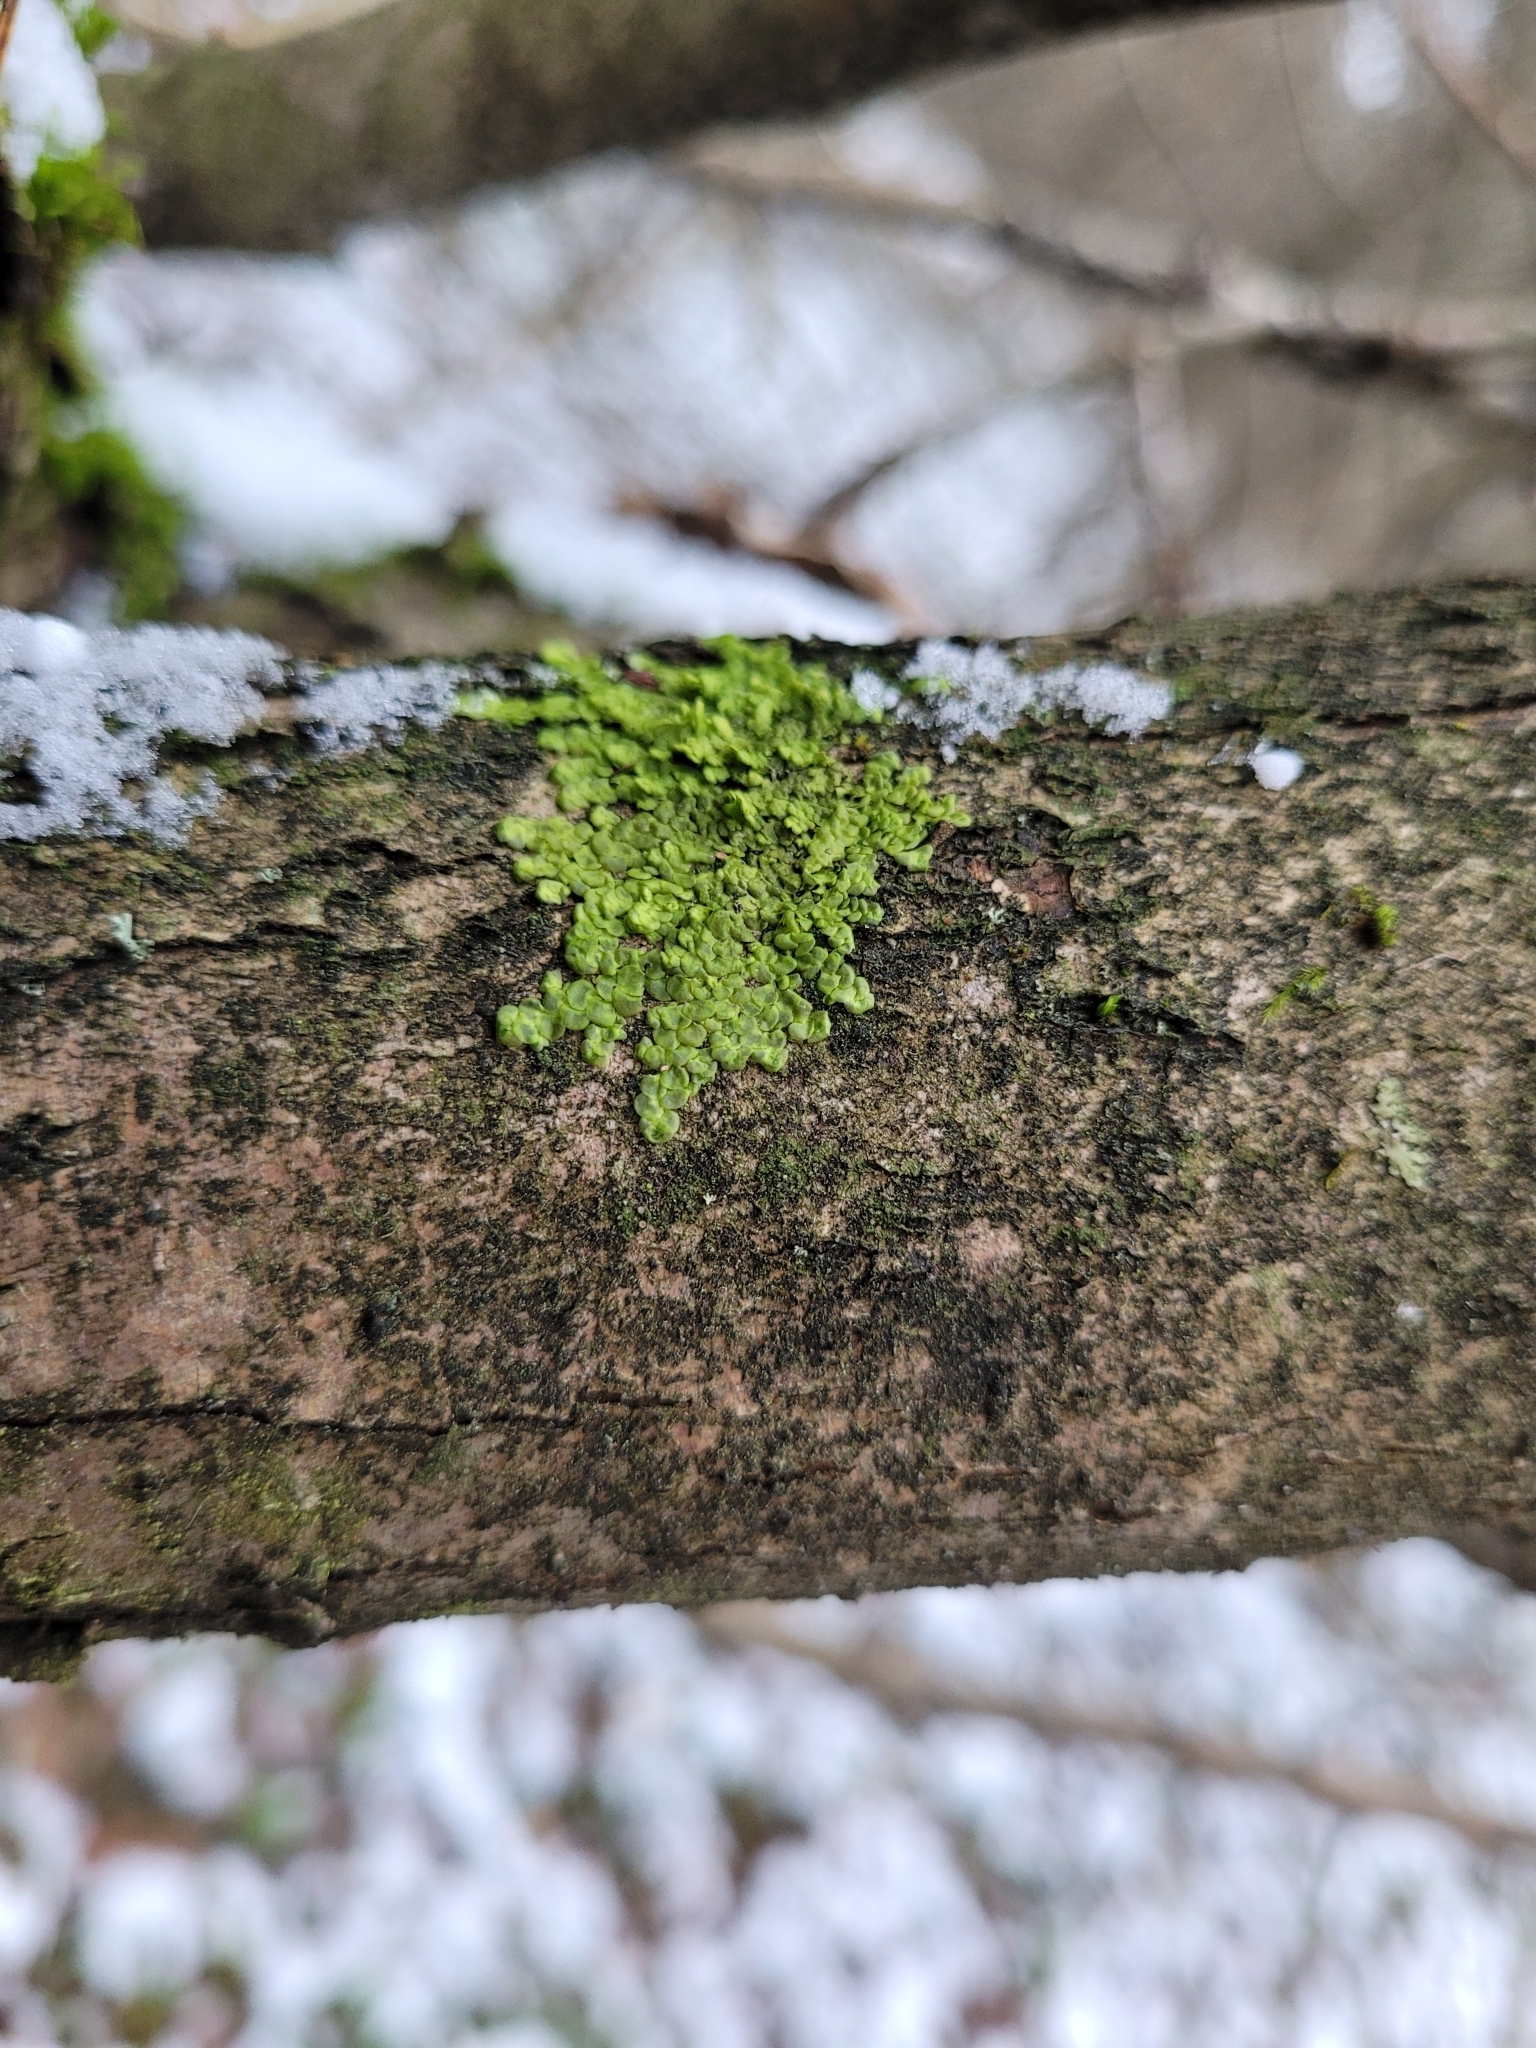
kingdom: Plantae
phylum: Marchantiophyta
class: Jungermanniopsida
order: Porellales
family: Radulaceae
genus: Radula
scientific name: Radula complanata
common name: Flat-leaved scalewort
